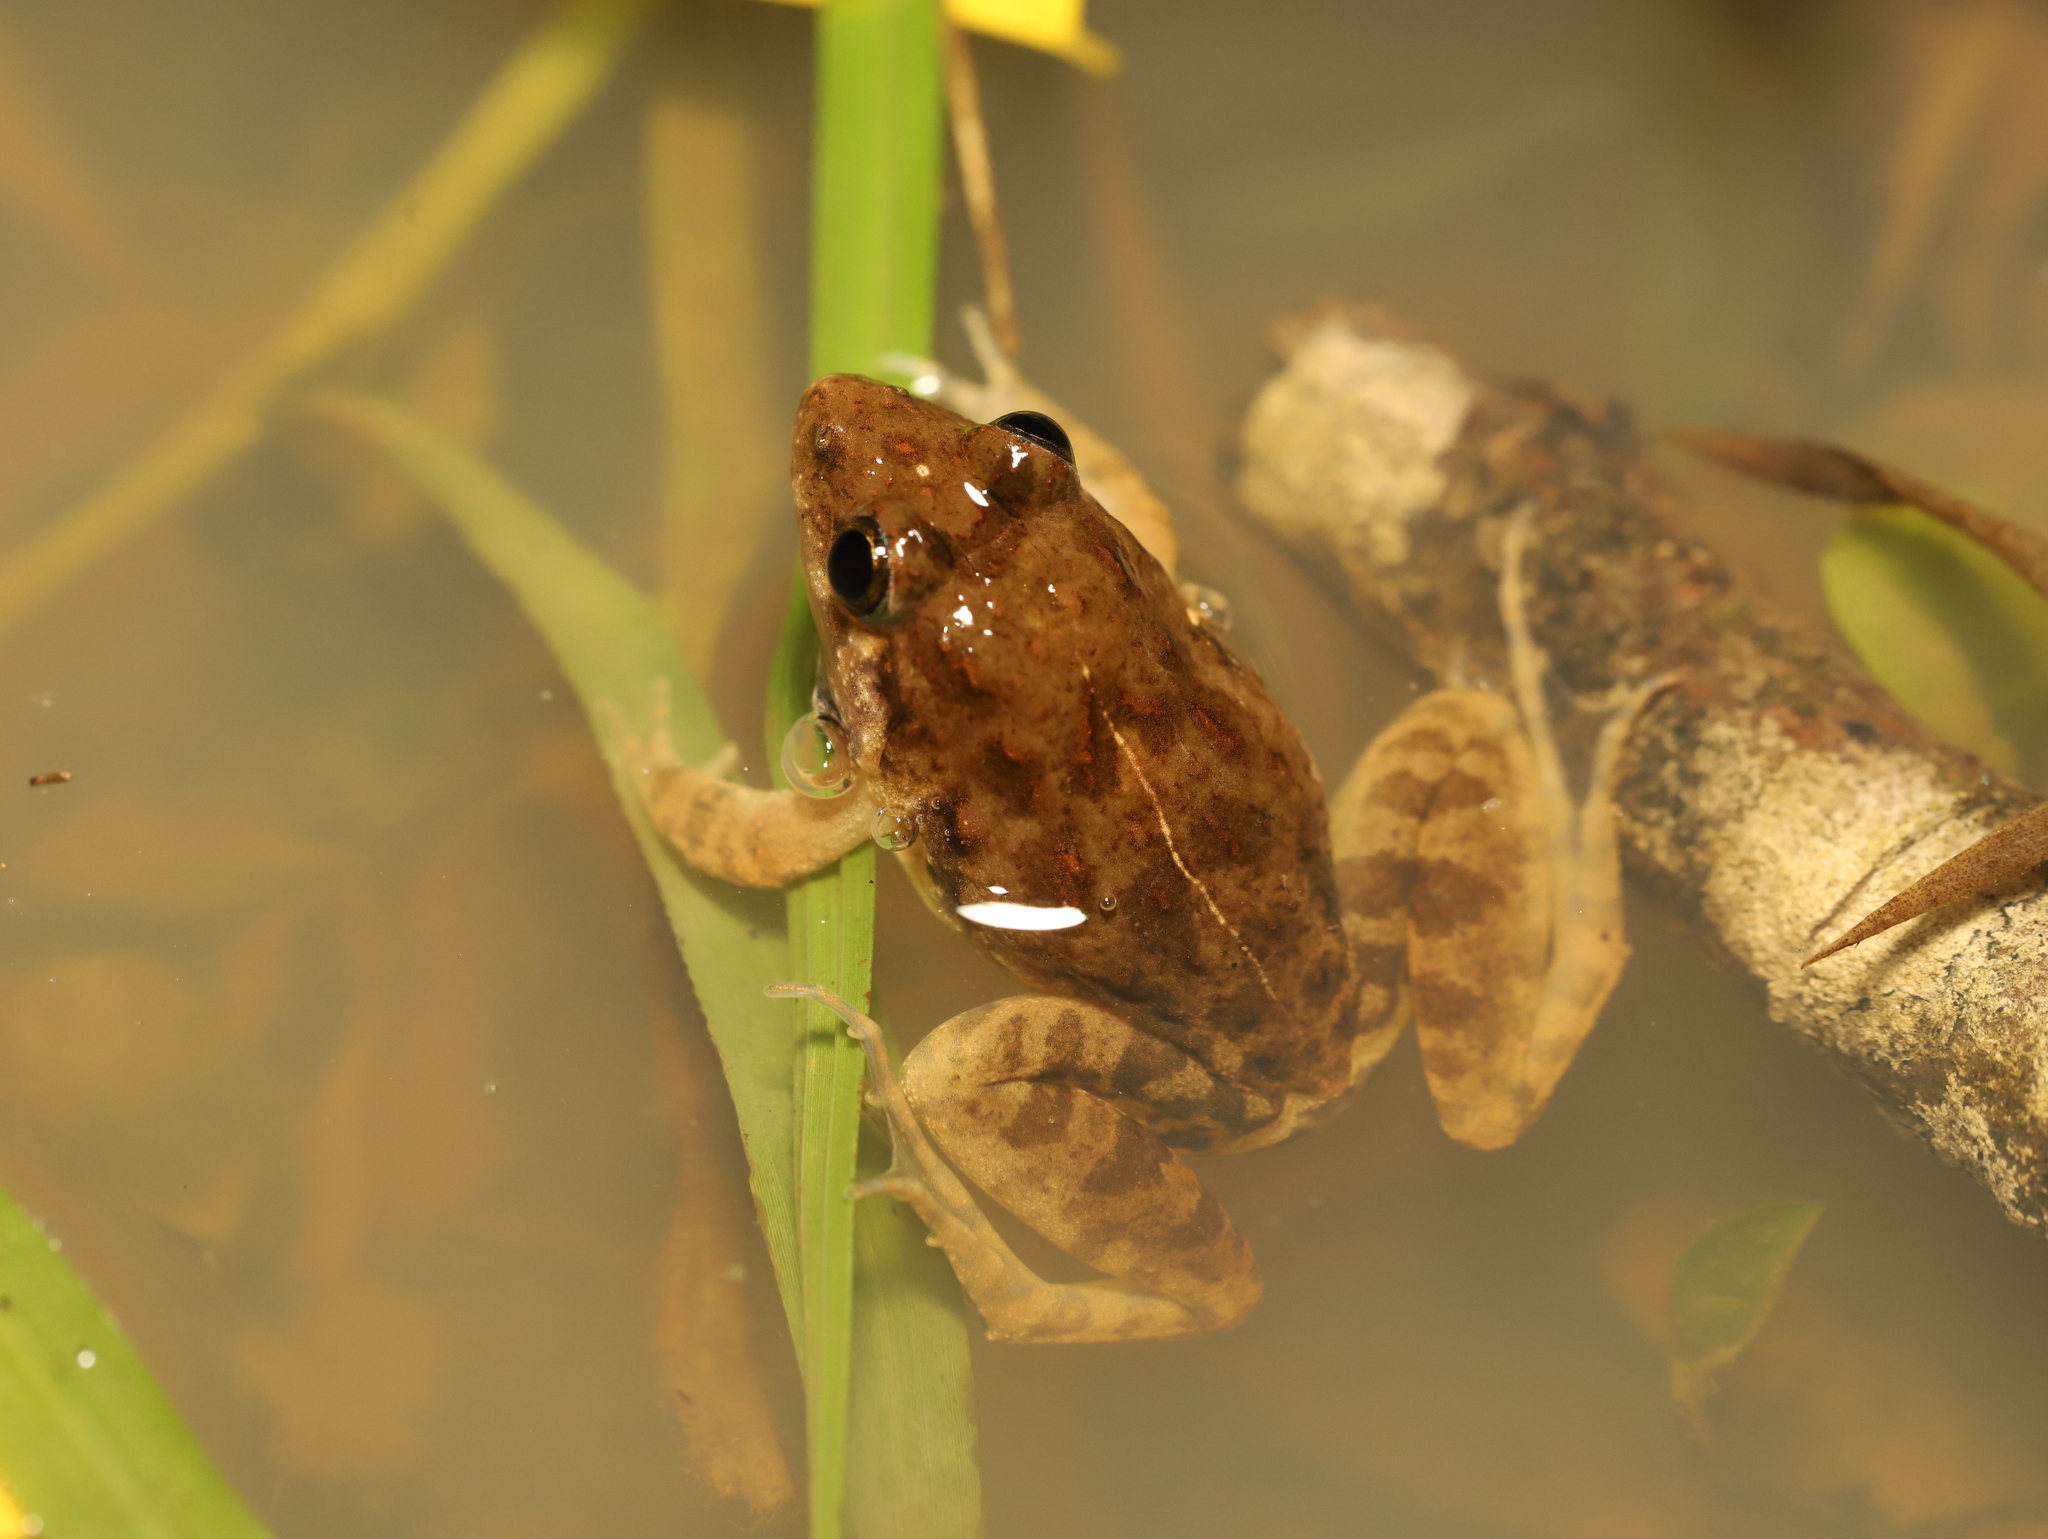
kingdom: Animalia
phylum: Chordata
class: Amphibia
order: Anura
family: Dicroglossidae
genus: Minervarya
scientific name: Minervarya agricola
